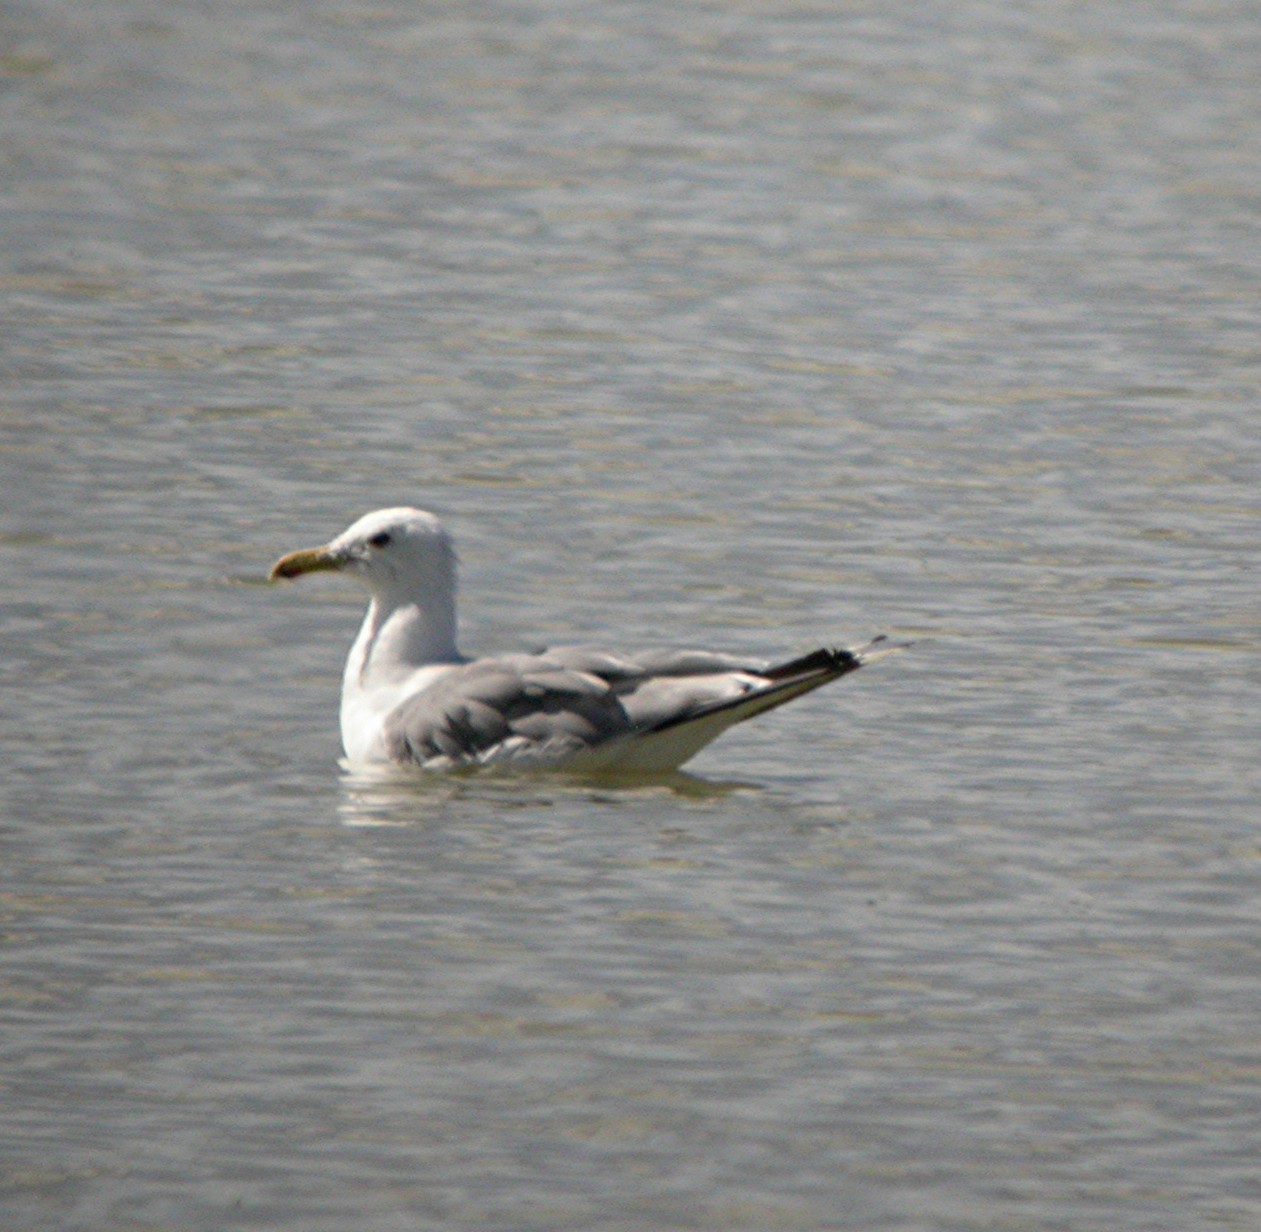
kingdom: Animalia
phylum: Chordata
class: Aves
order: Charadriiformes
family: Laridae
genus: Larus
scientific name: Larus californicus
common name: California gull
